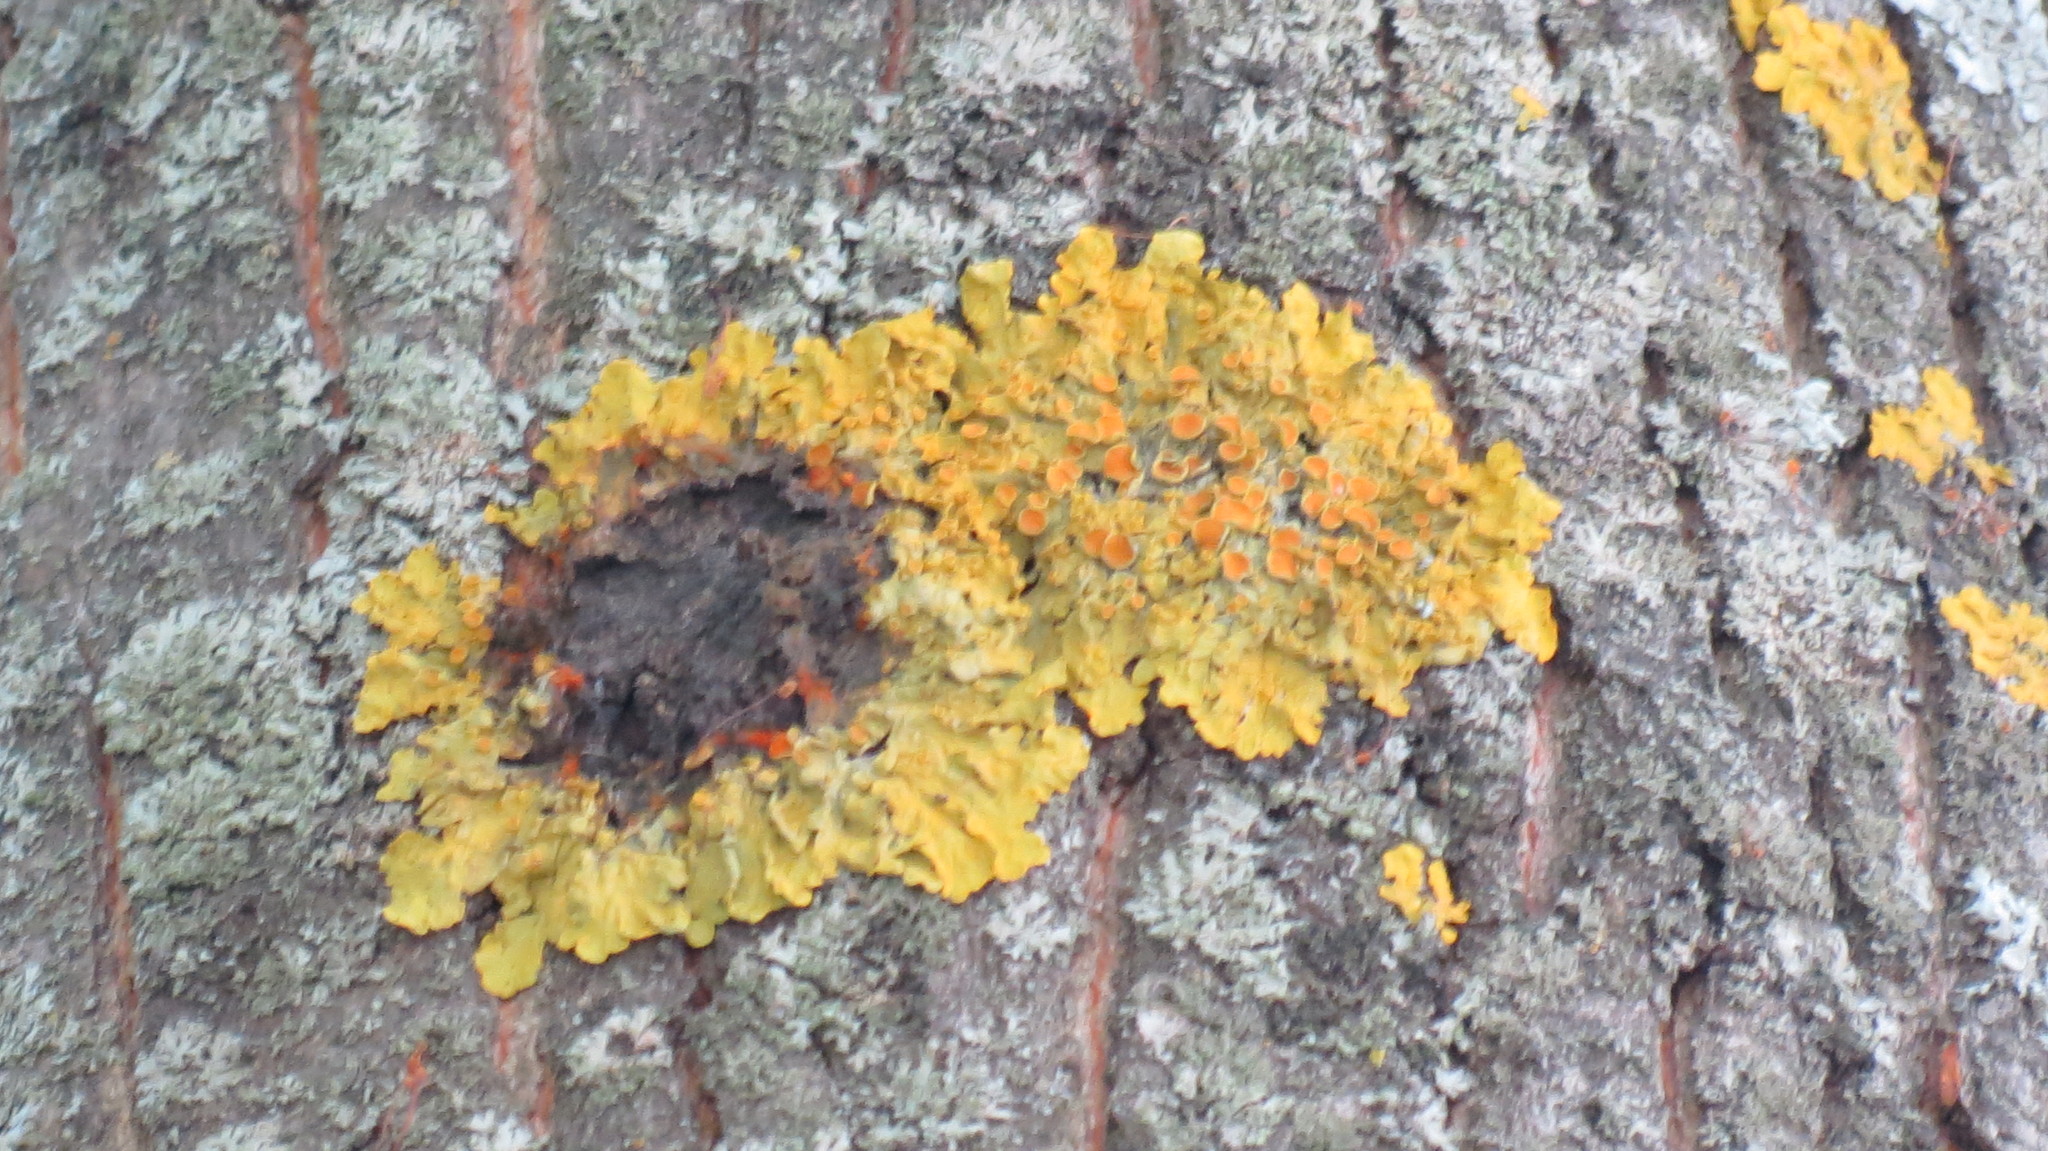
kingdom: Fungi
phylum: Ascomycota
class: Lecanoromycetes
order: Teloschistales
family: Teloschistaceae
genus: Xanthoria
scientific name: Xanthoria parietina
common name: Common orange lichen
